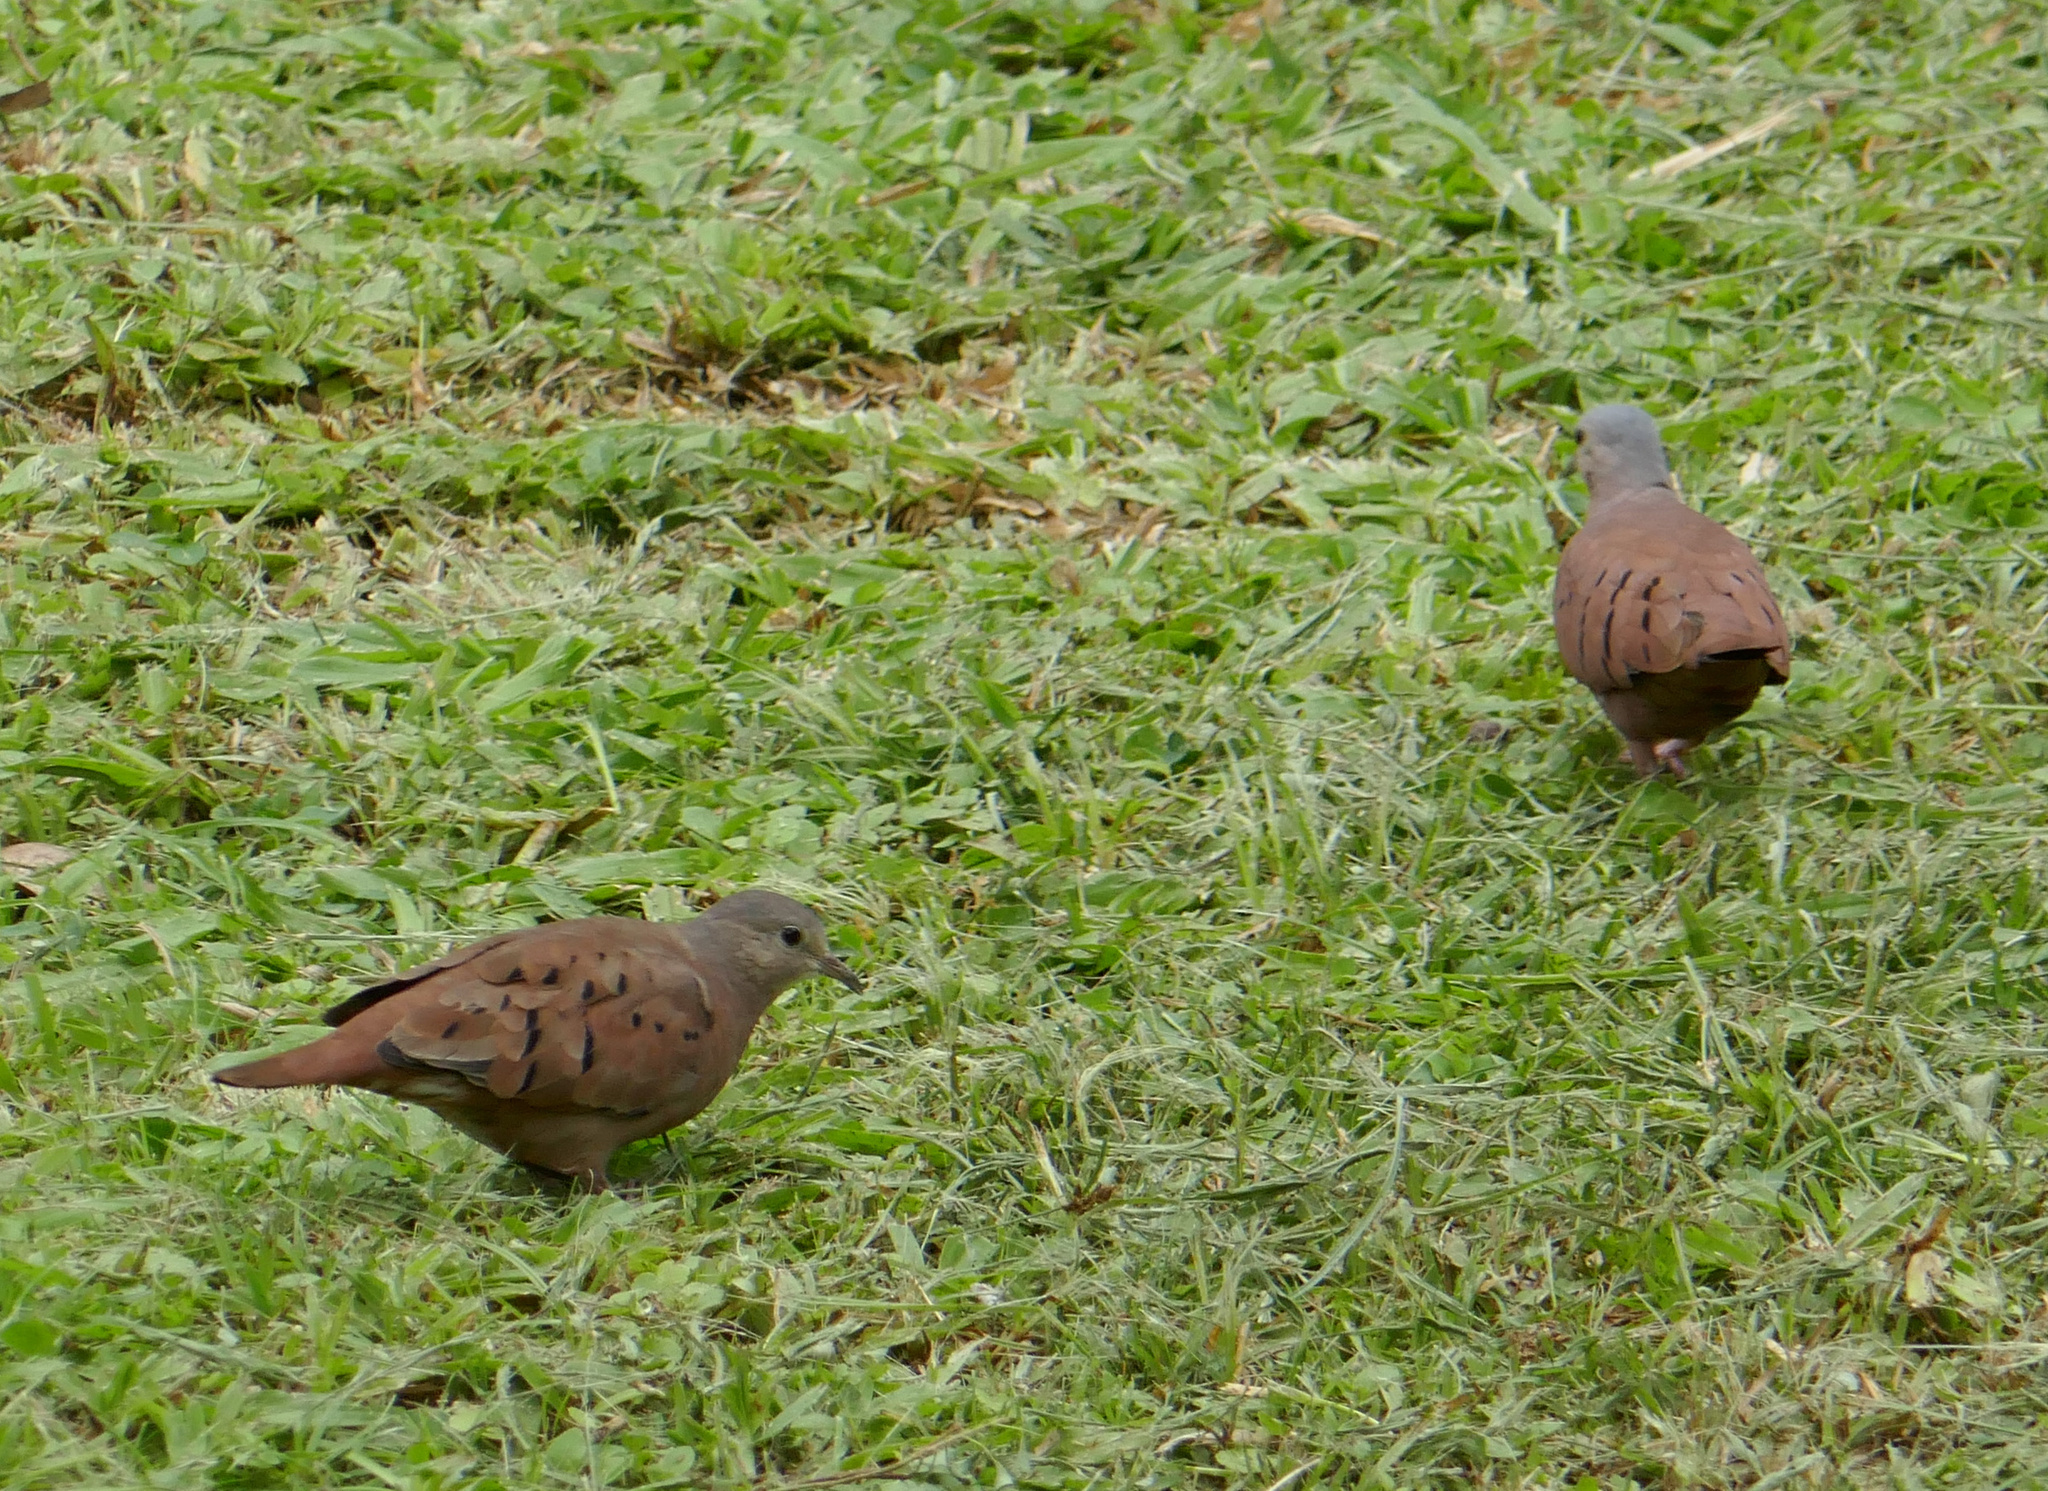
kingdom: Animalia
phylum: Chordata
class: Aves
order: Columbiformes
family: Columbidae
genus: Columbina
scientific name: Columbina talpacoti
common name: Ruddy ground dove
